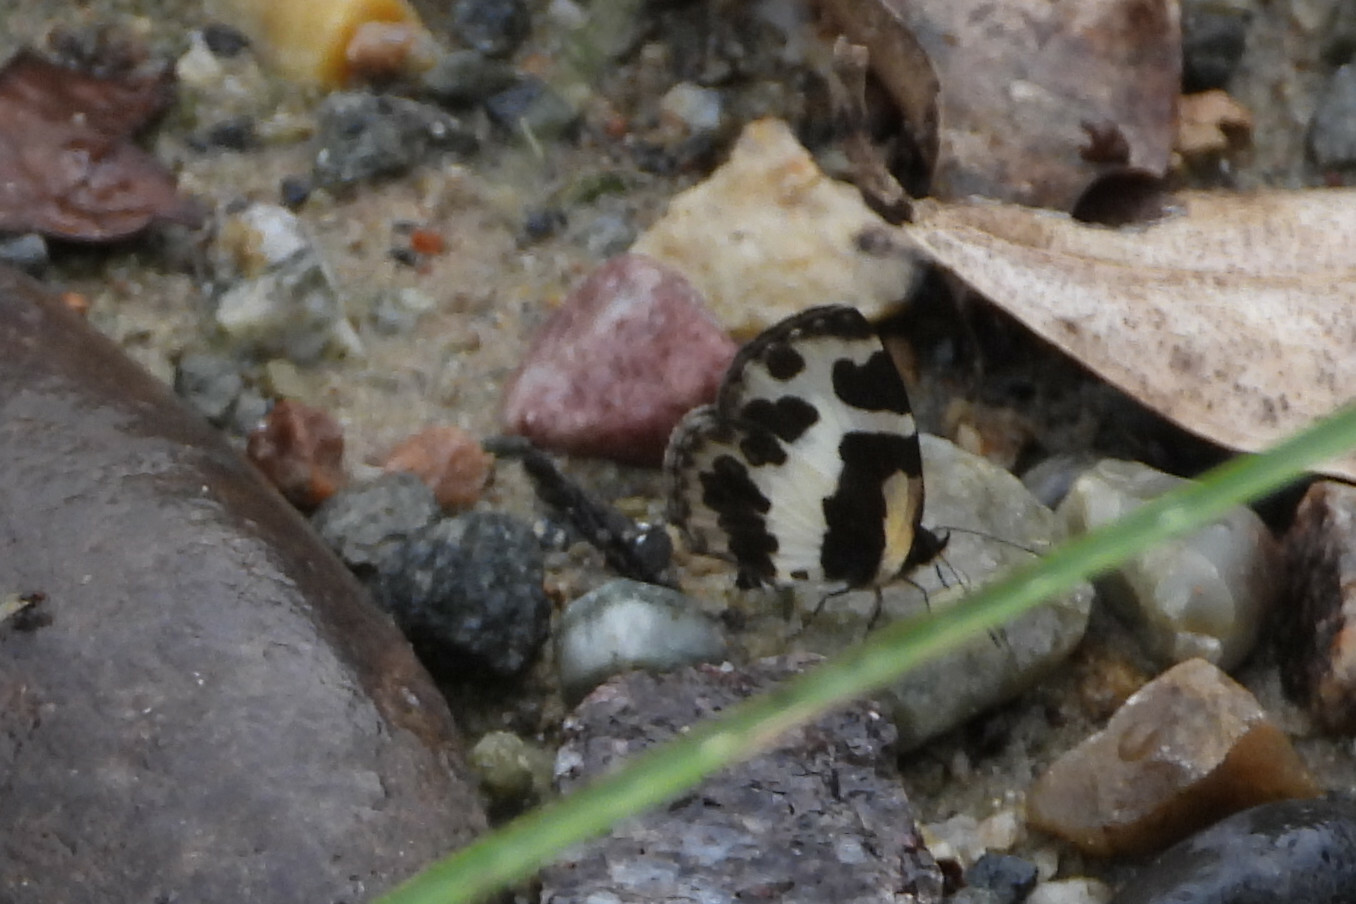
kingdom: Animalia
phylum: Arthropoda
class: Insecta
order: Lepidoptera
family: Lycaenidae
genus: Caleta
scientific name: Caleta elna
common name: Elbowed pierrot
